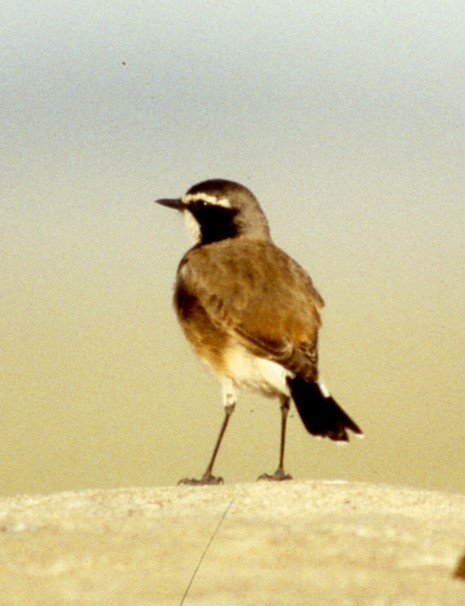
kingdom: Animalia
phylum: Chordata
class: Aves
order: Passeriformes
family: Muscicapidae
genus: Oenanthe
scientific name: Oenanthe pileata
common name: Capped wheatear
